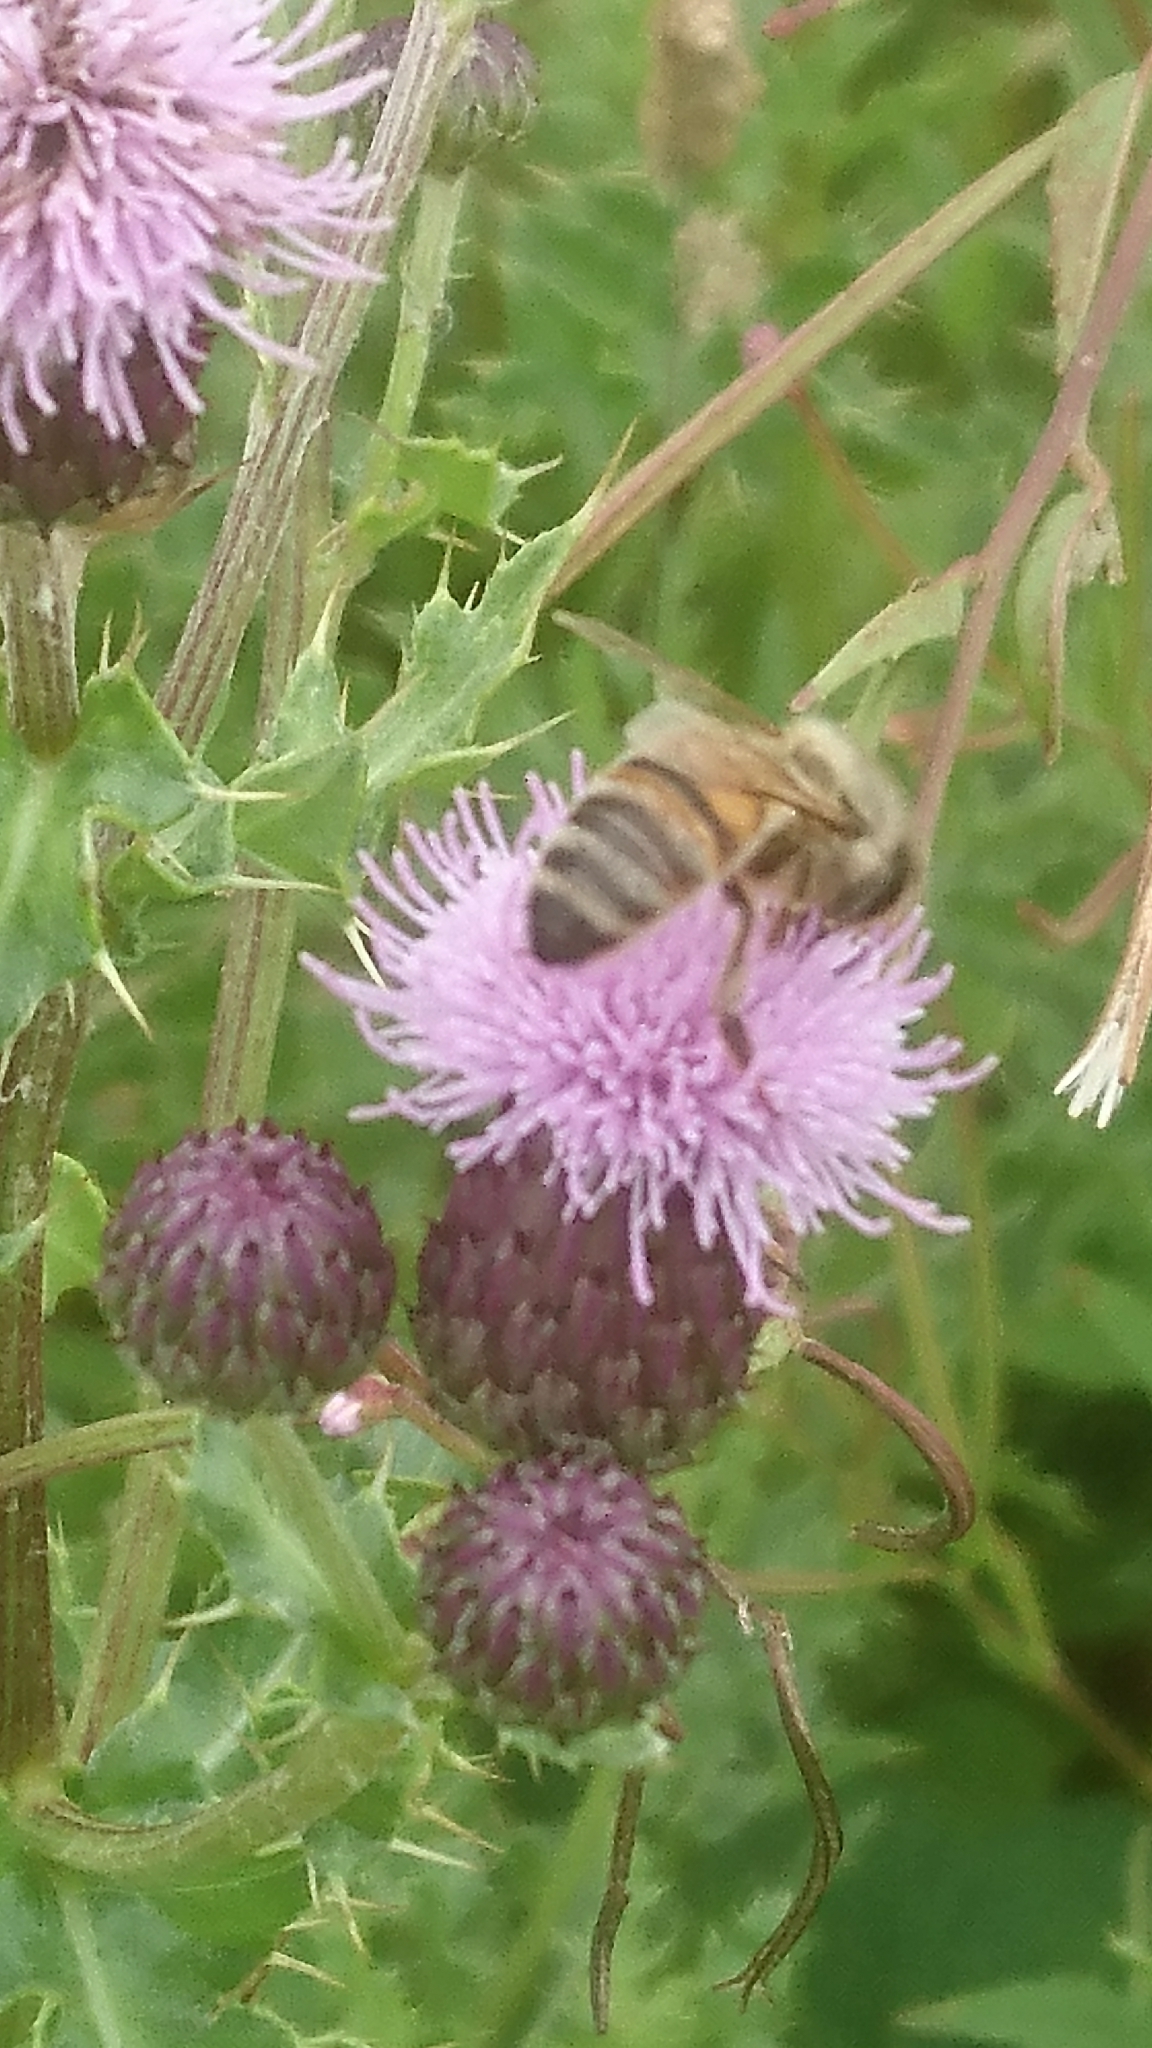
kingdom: Animalia
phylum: Arthropoda
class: Insecta
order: Hymenoptera
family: Apidae
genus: Apis
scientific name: Apis mellifera
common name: Honey bee
